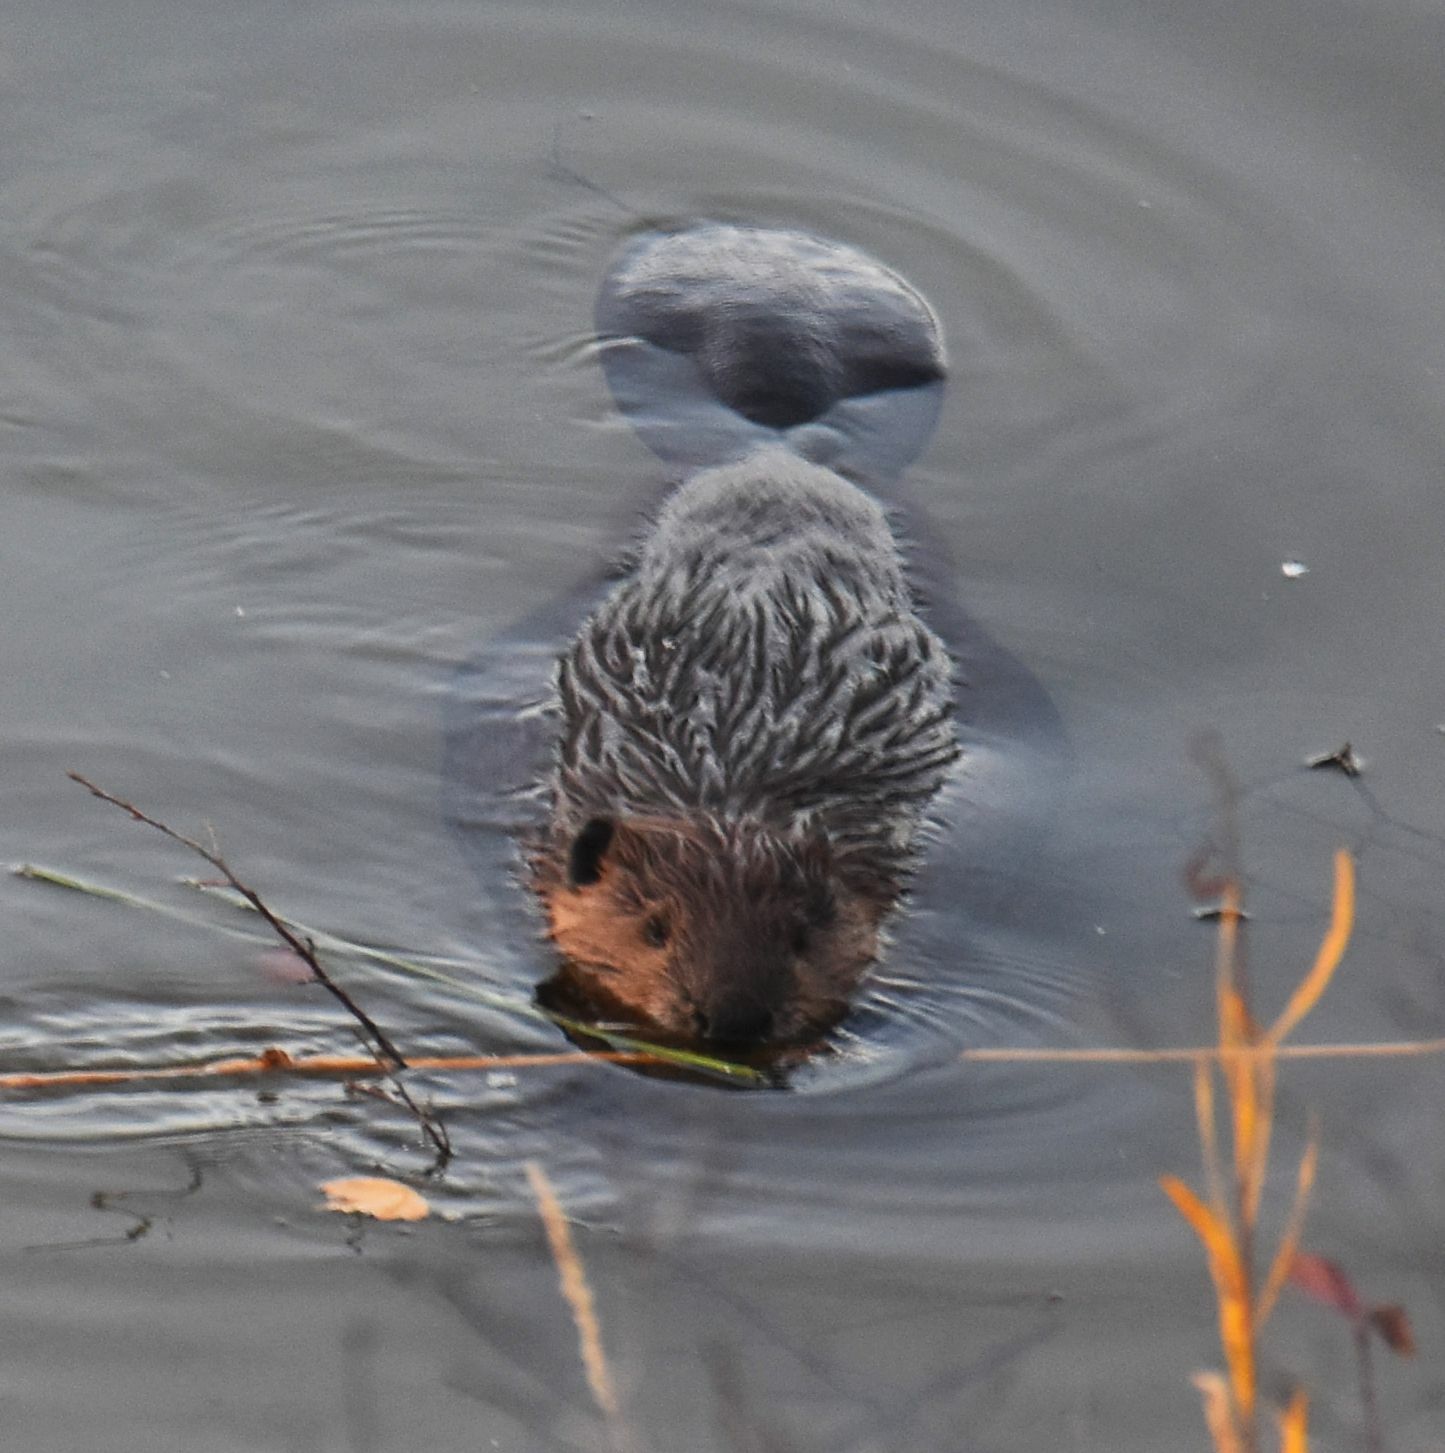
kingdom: Animalia
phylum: Chordata
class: Mammalia
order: Rodentia
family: Castoridae
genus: Castor
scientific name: Castor canadensis
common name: American beaver
